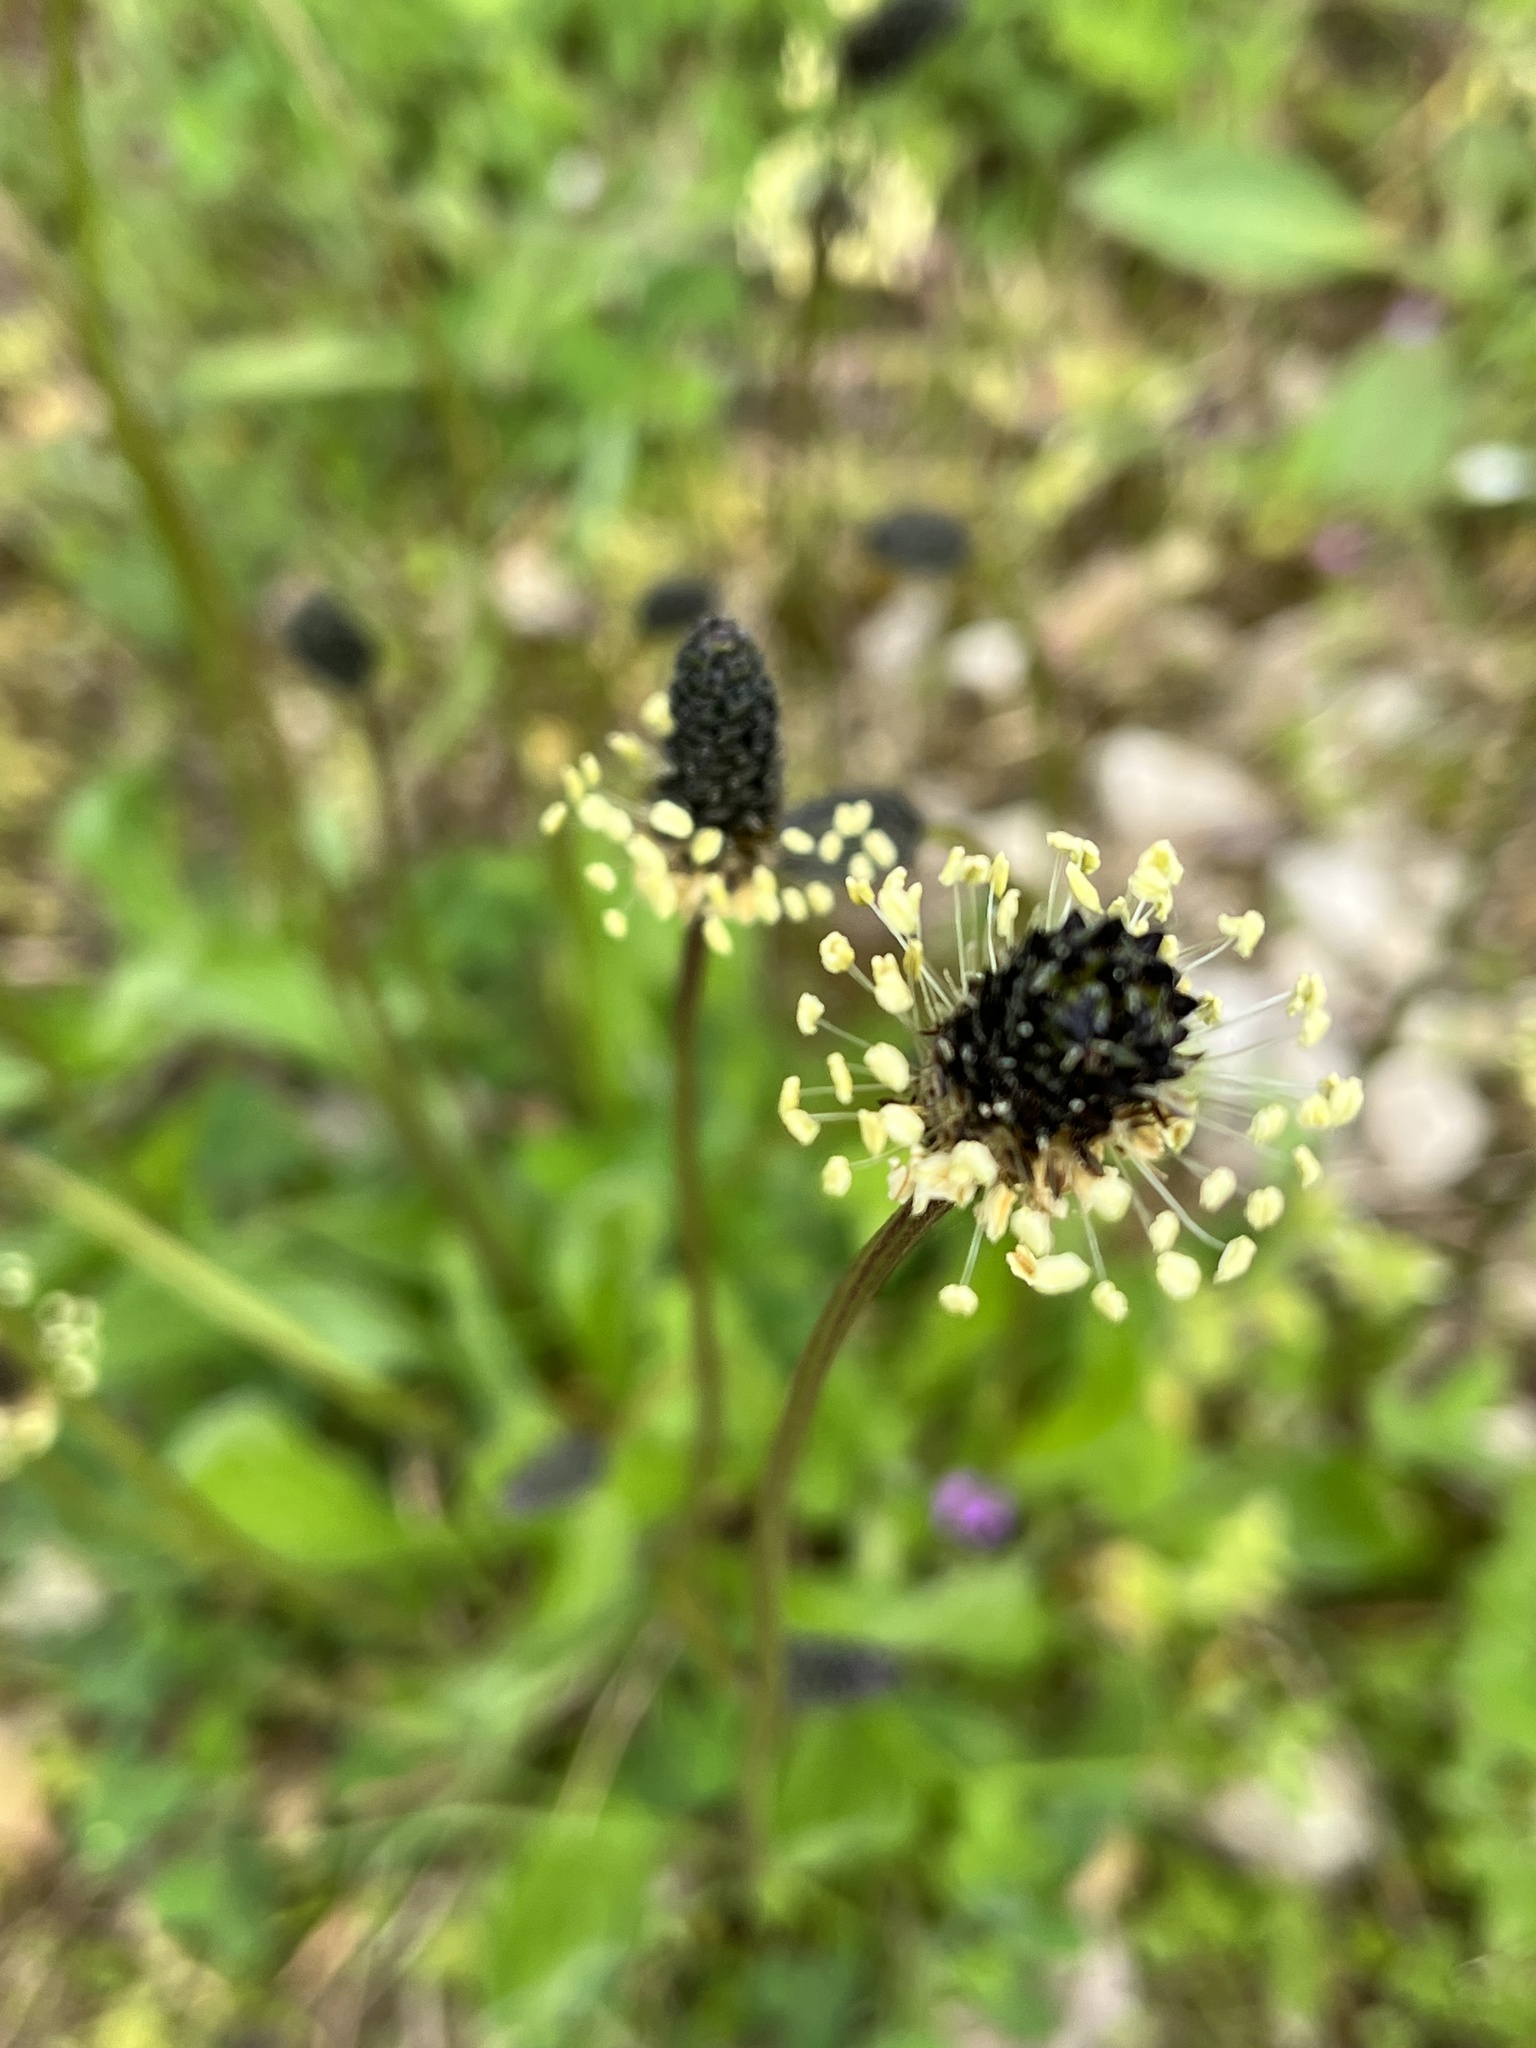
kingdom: Plantae
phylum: Tracheophyta
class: Magnoliopsida
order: Lamiales
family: Plantaginaceae
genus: Plantago
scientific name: Plantago lanceolata
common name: Ribwort plantain
